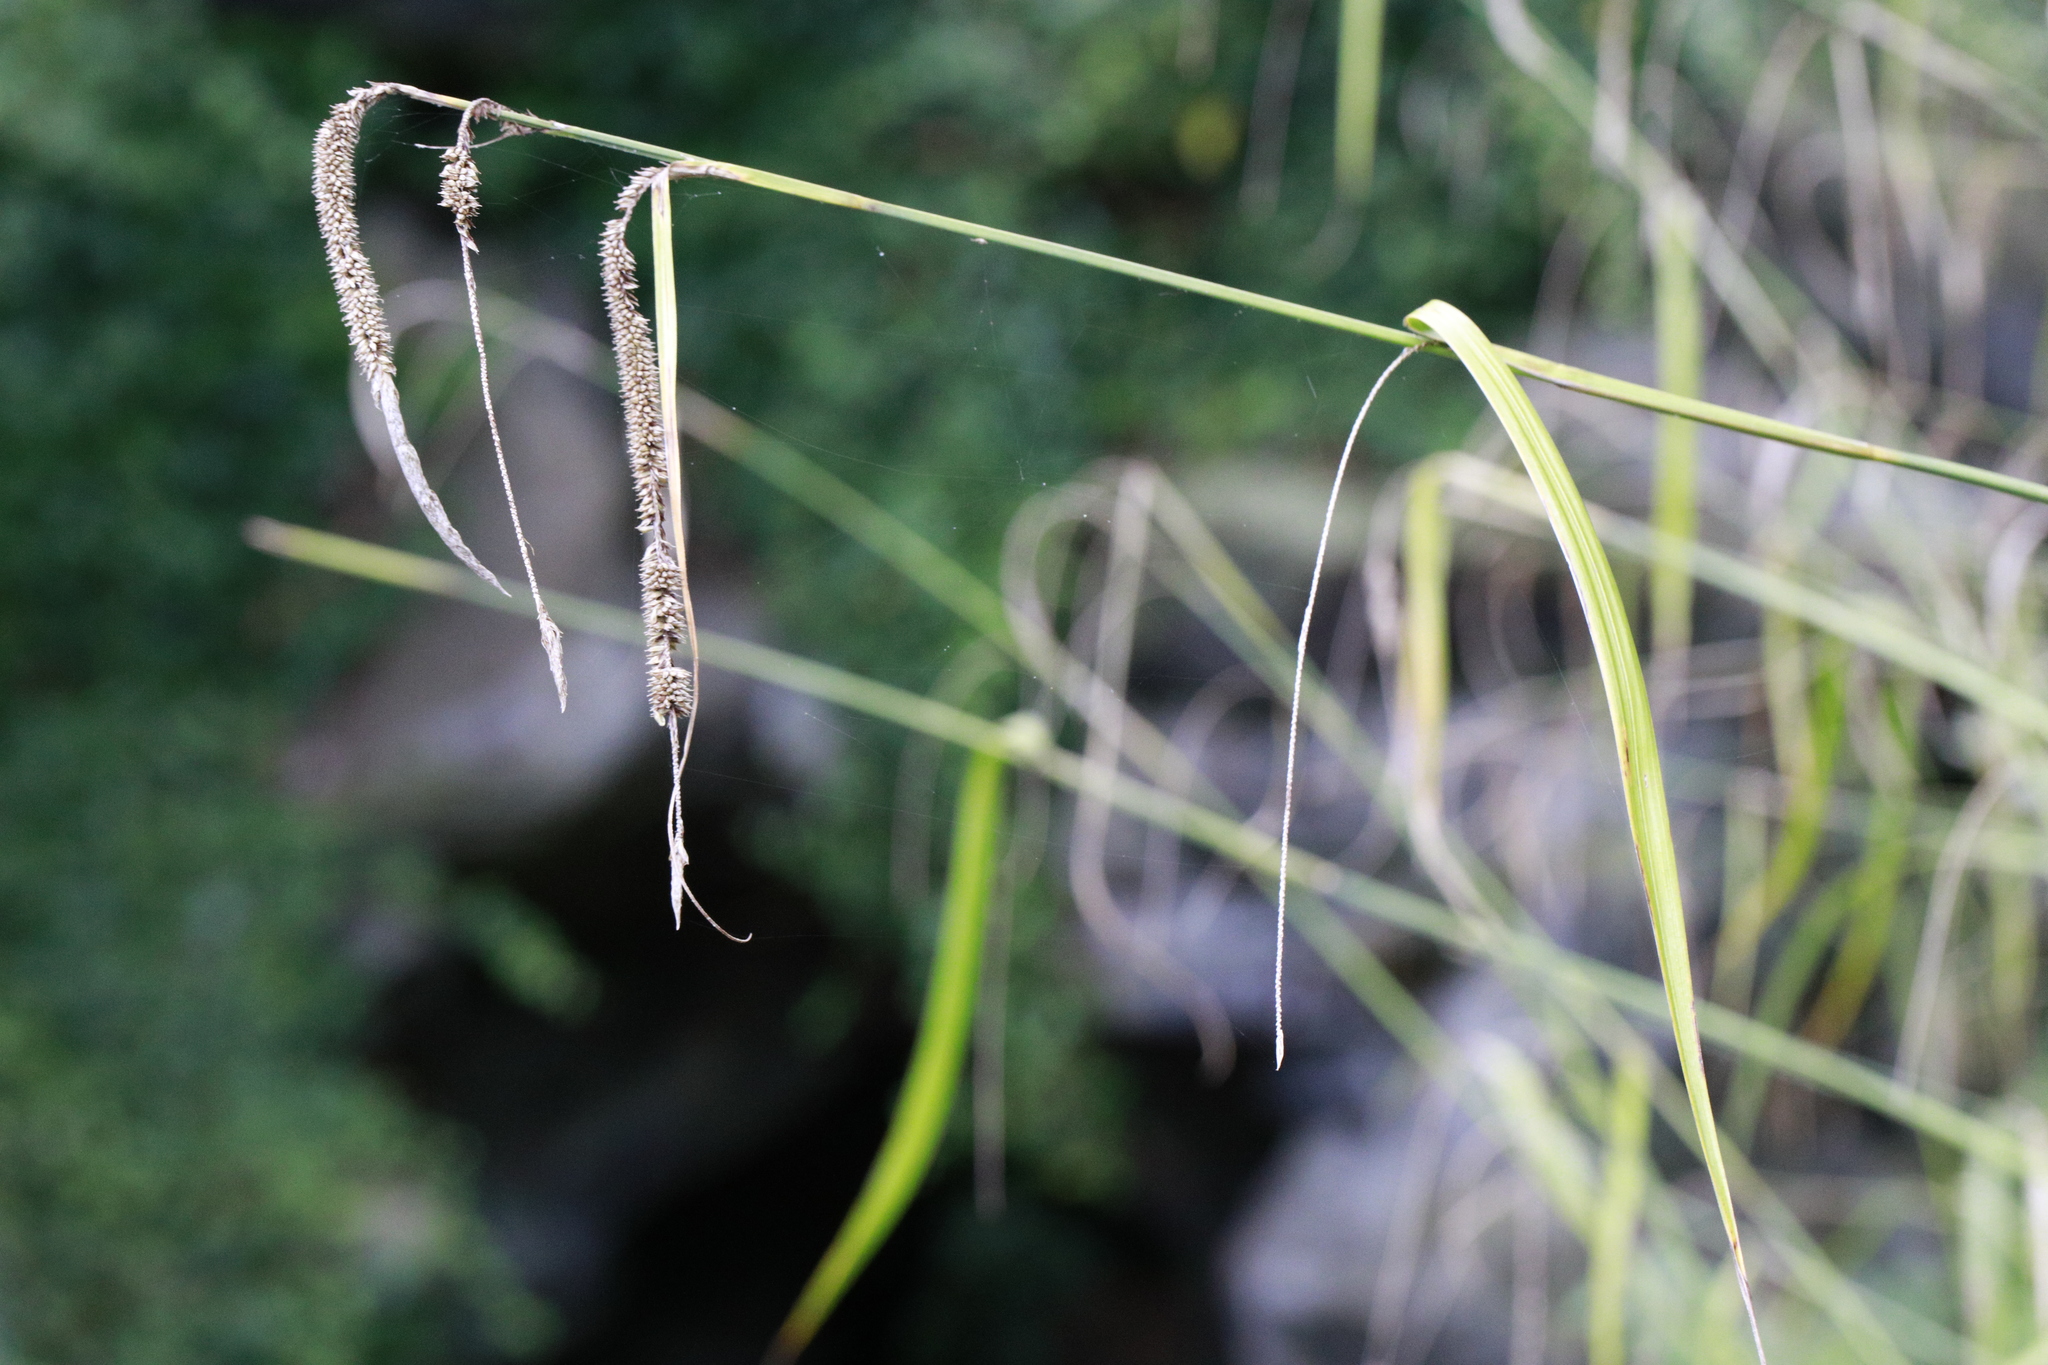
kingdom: Plantae
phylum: Tracheophyta
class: Liliopsida
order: Poales
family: Cyperaceae
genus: Carex
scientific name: Carex pendula
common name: Pendulous sedge
